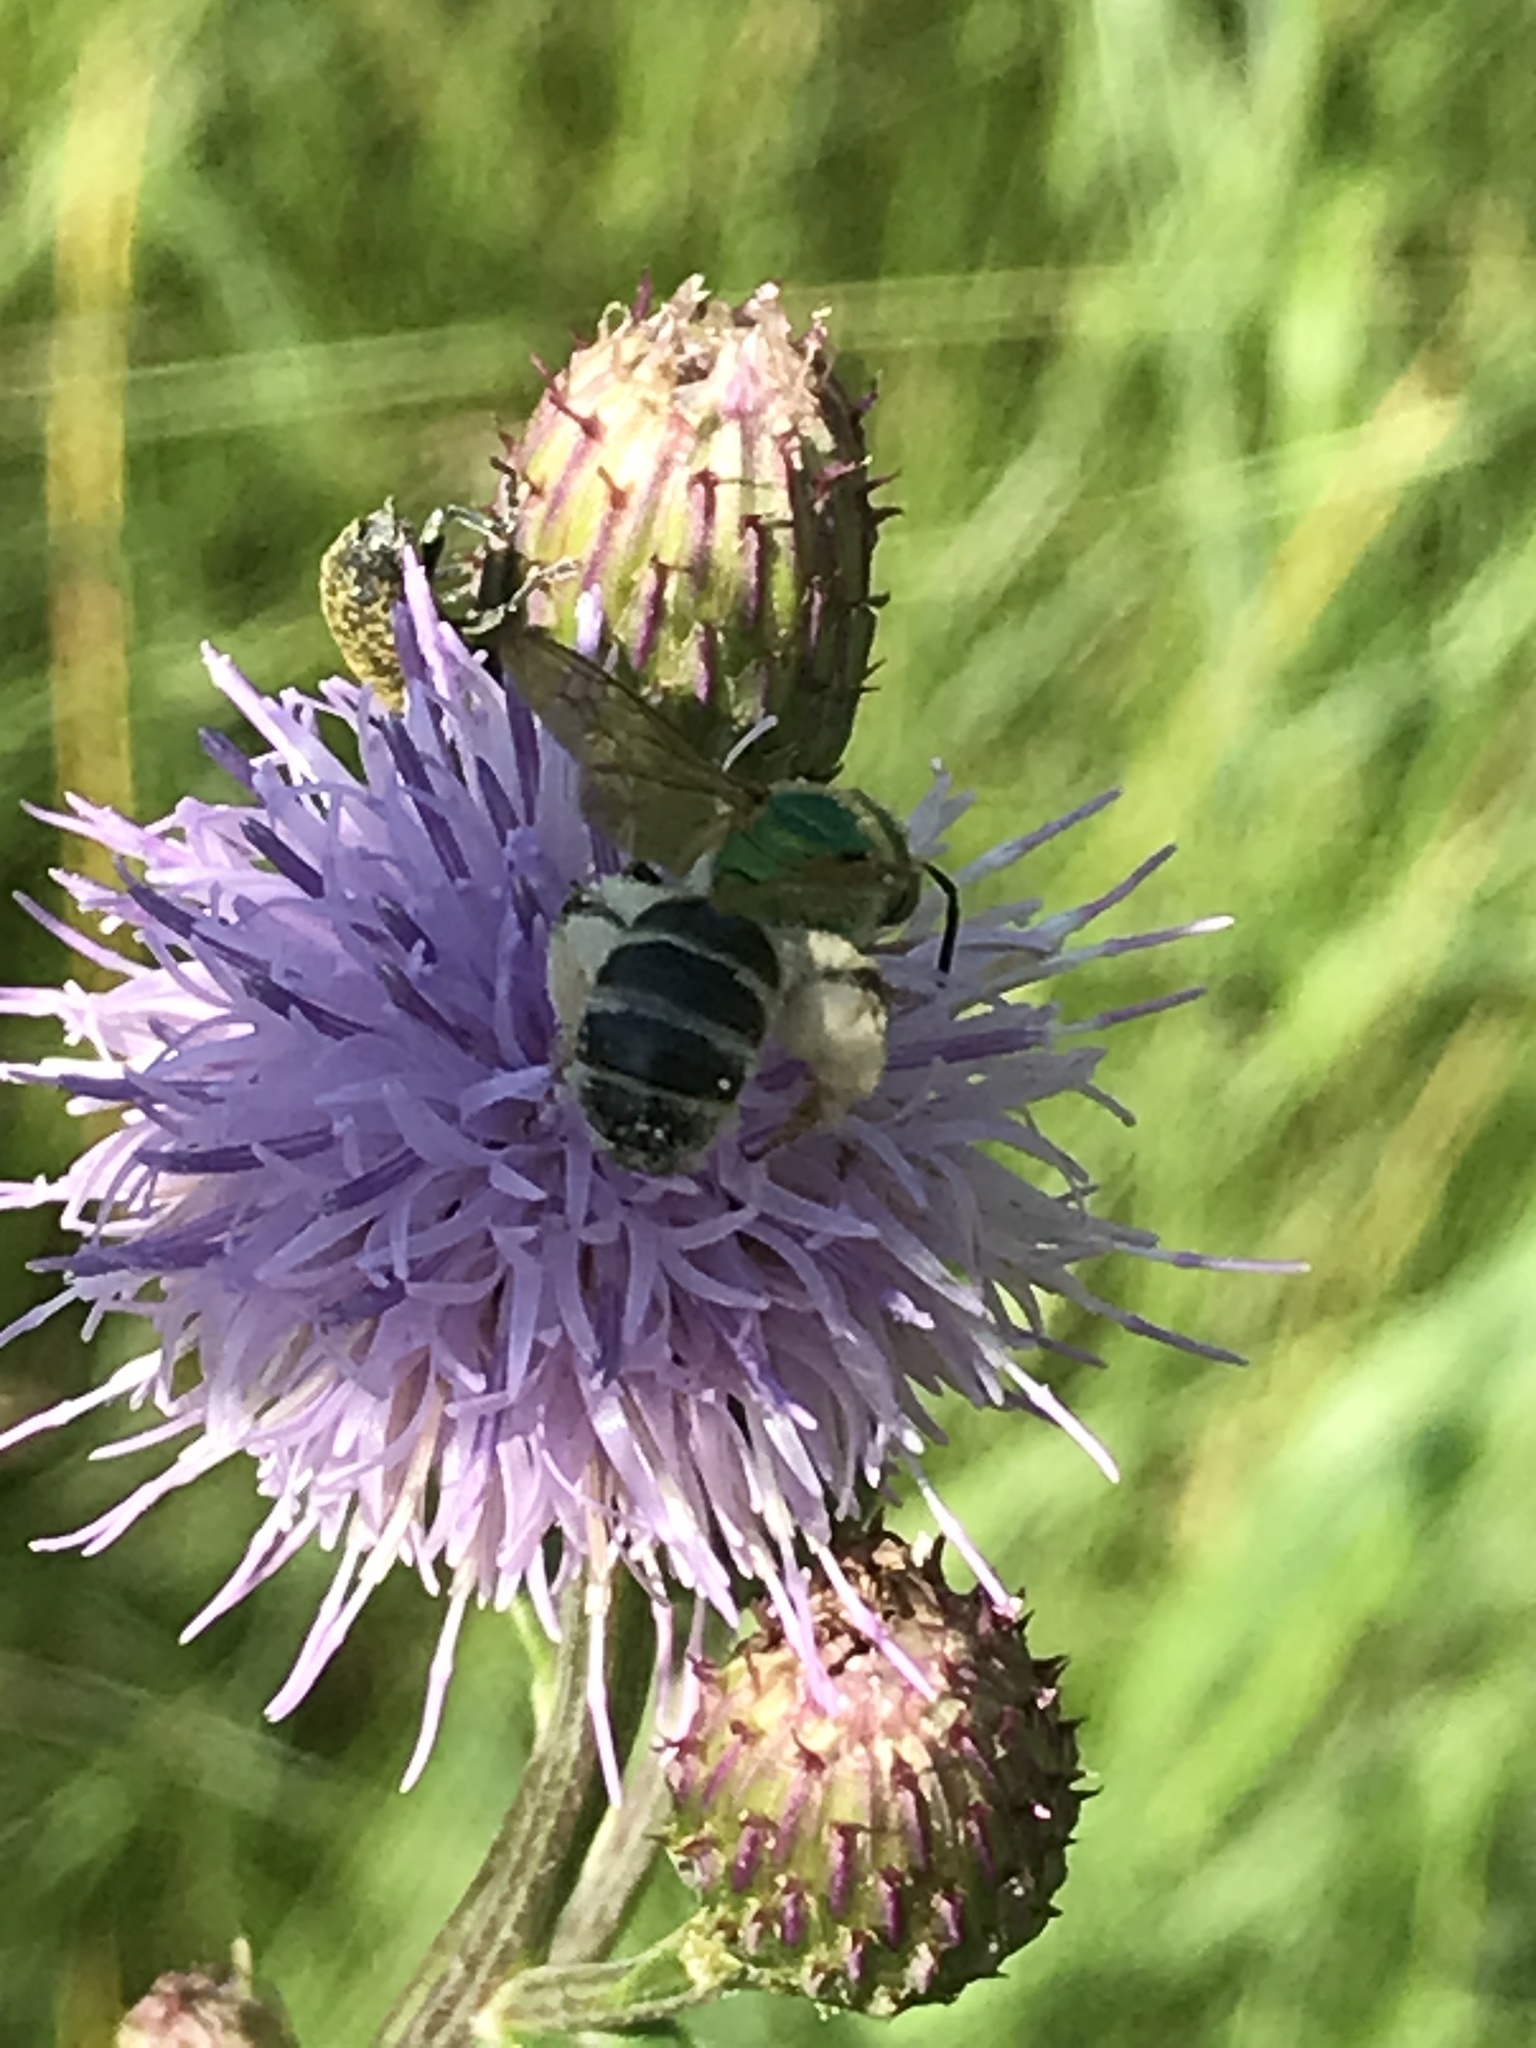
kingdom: Animalia
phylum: Arthropoda
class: Insecta
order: Hymenoptera
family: Halictidae
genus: Agapostemon
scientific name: Agapostemon virescens
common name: Bicolored striped sweat bee
